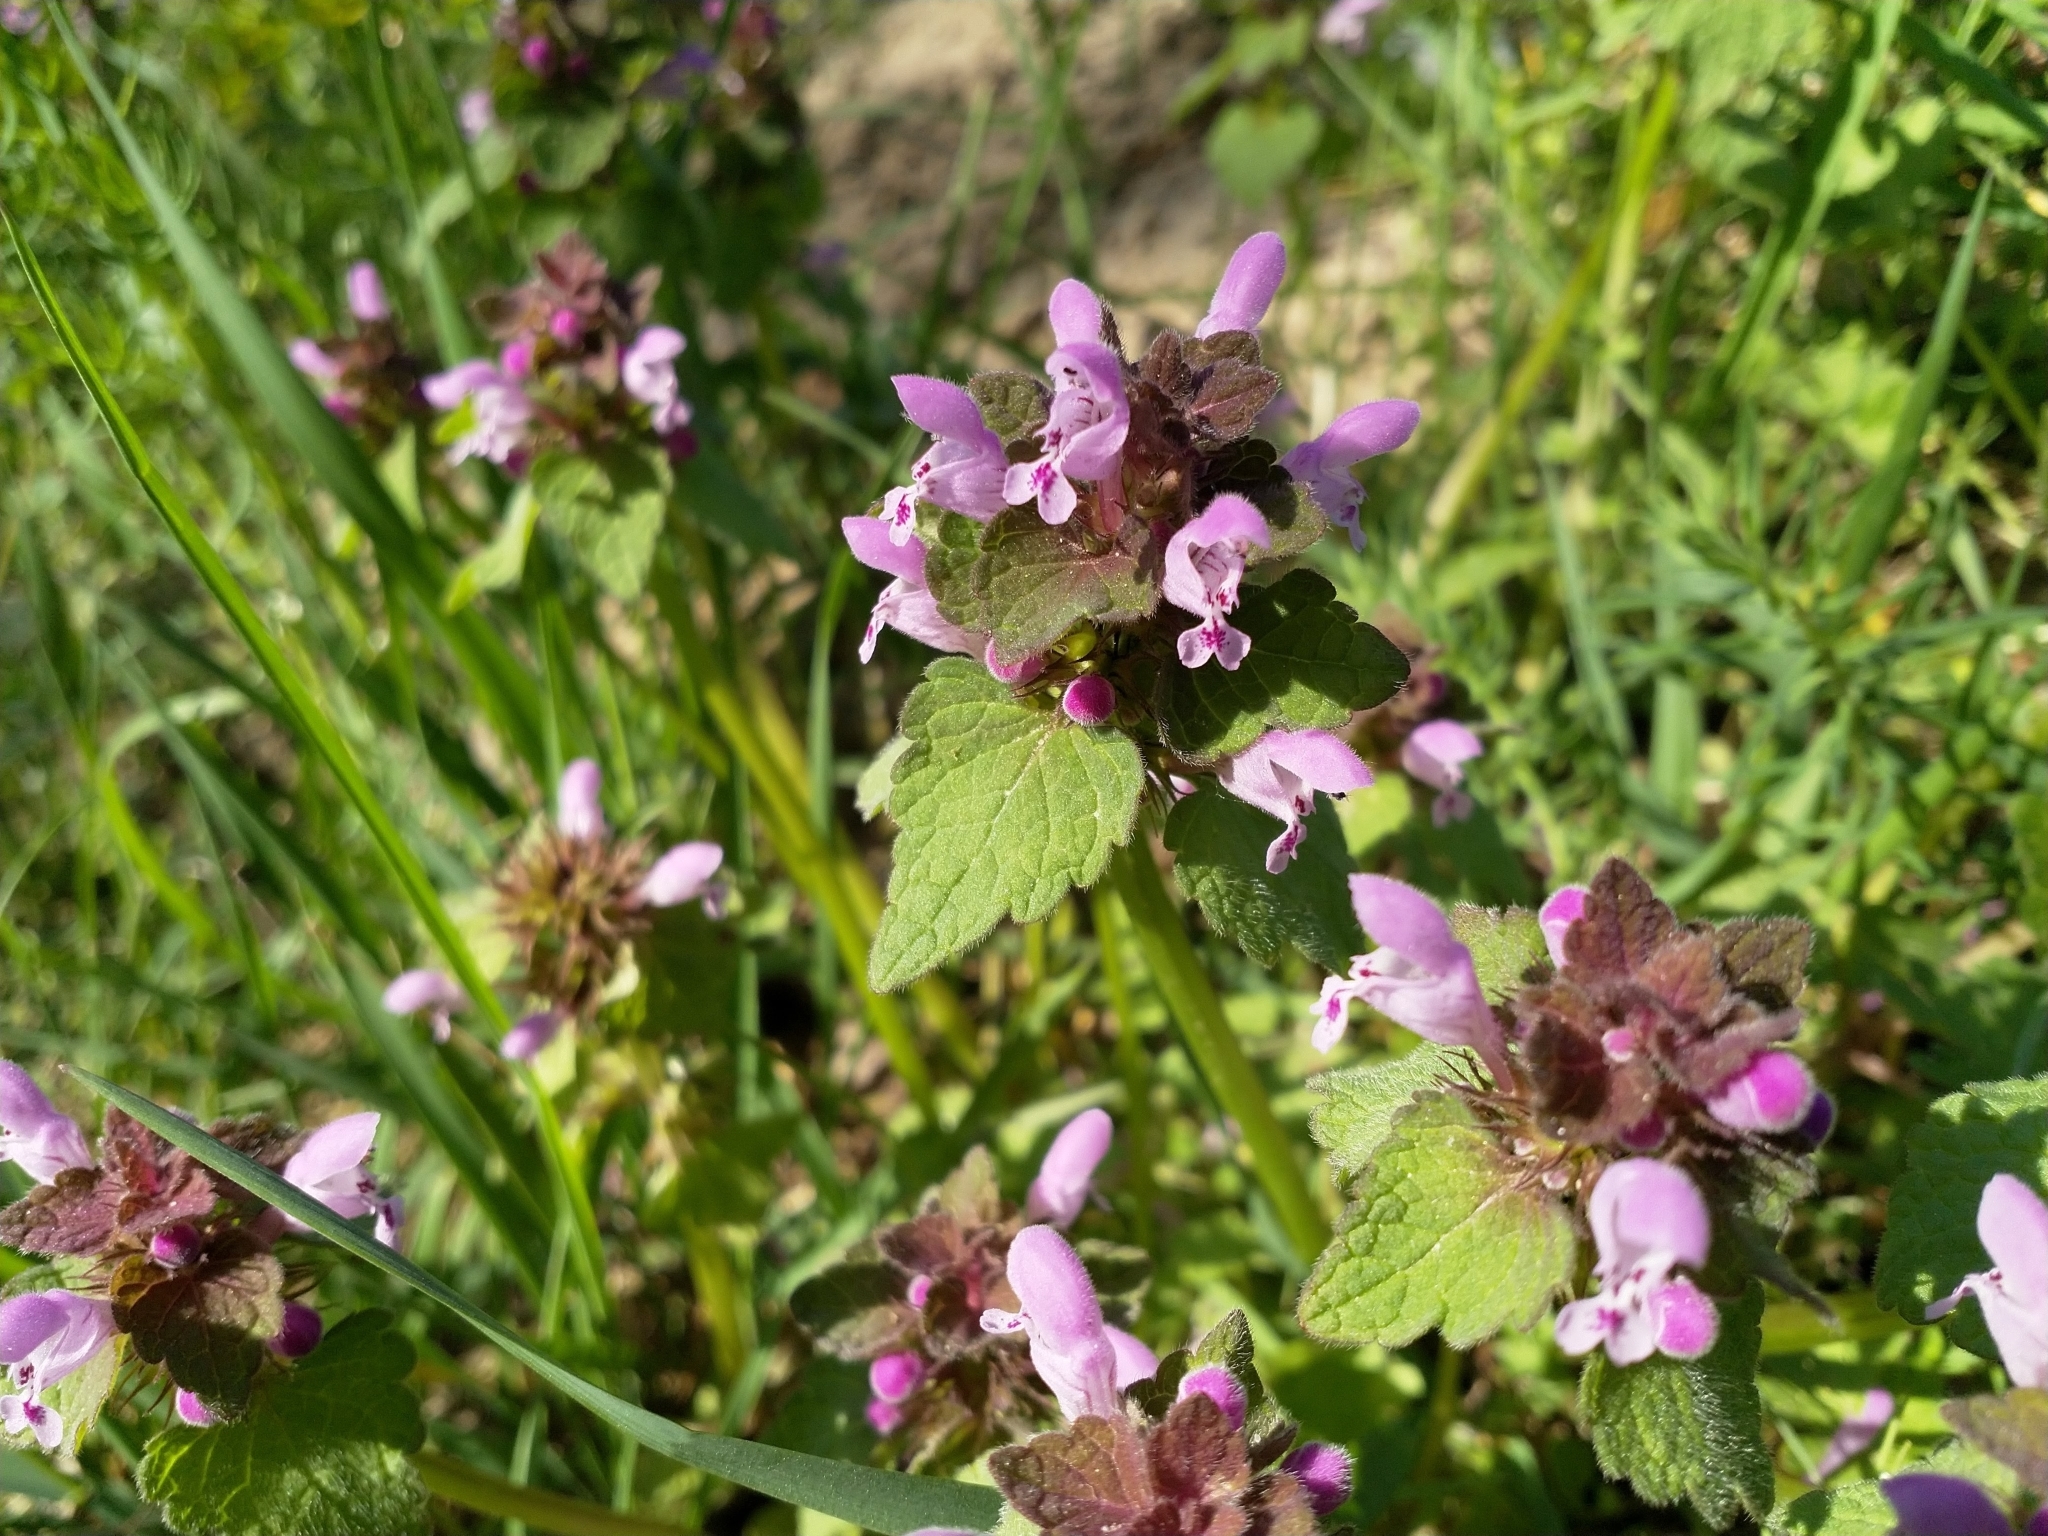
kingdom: Plantae
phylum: Tracheophyta
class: Magnoliopsida
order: Lamiales
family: Lamiaceae
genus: Lamium
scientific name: Lamium purpureum
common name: Red dead-nettle
